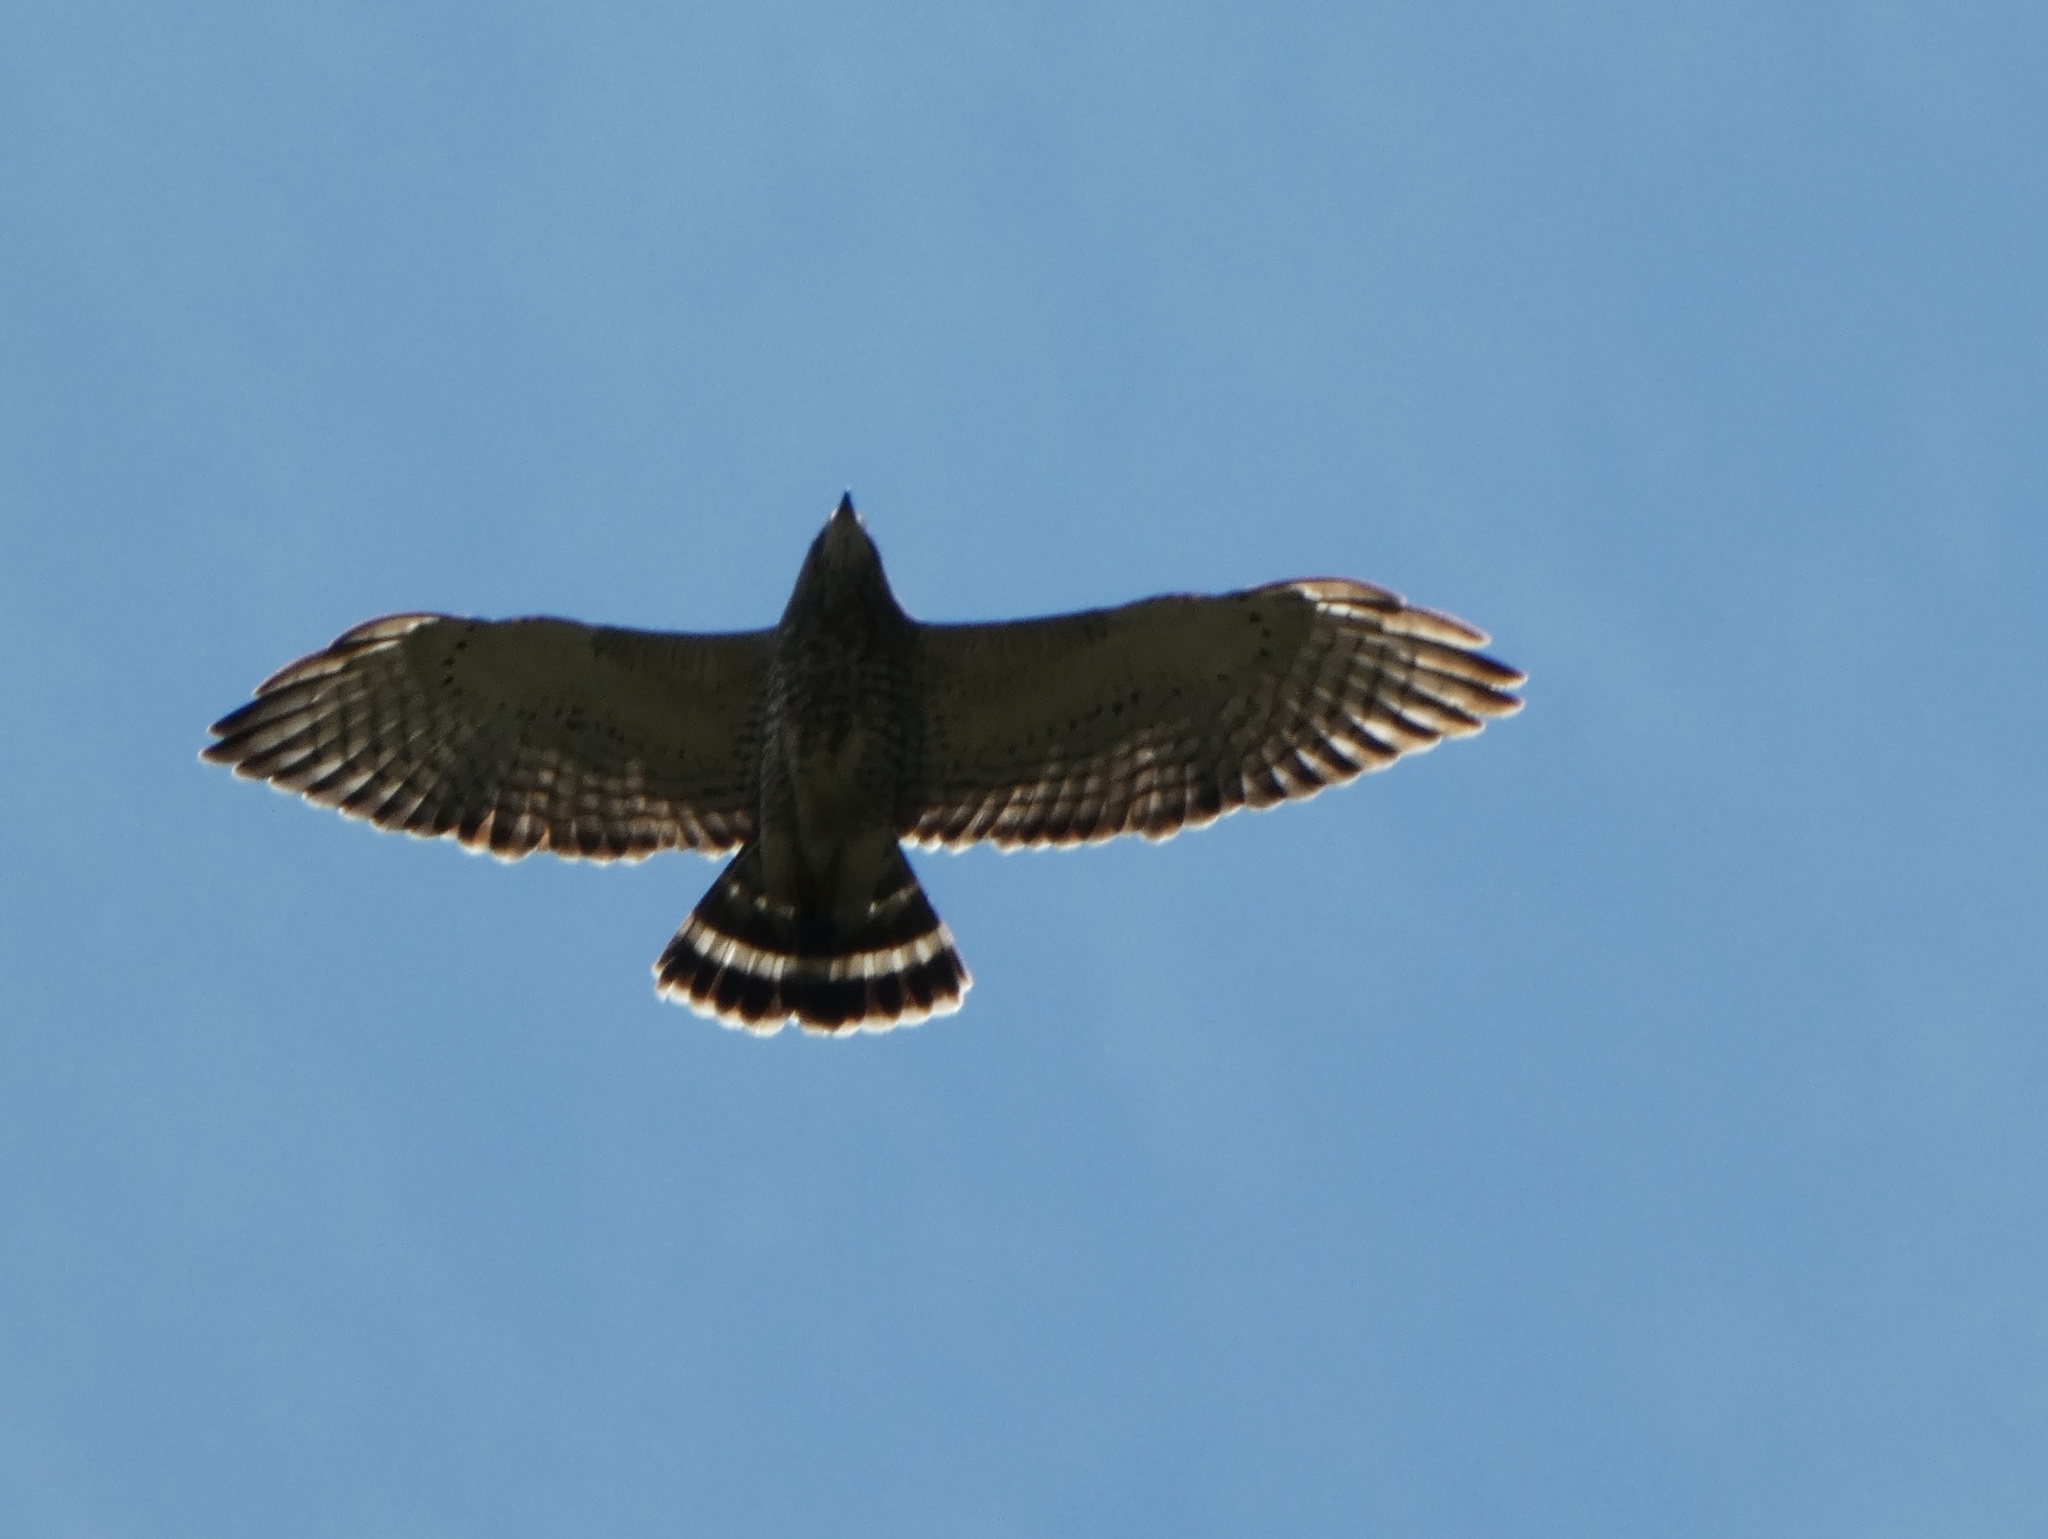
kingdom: Animalia
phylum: Chordata
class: Aves
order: Accipitriformes
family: Accipitridae
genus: Buteo
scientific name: Buteo platypterus
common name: Broad-winged hawk
